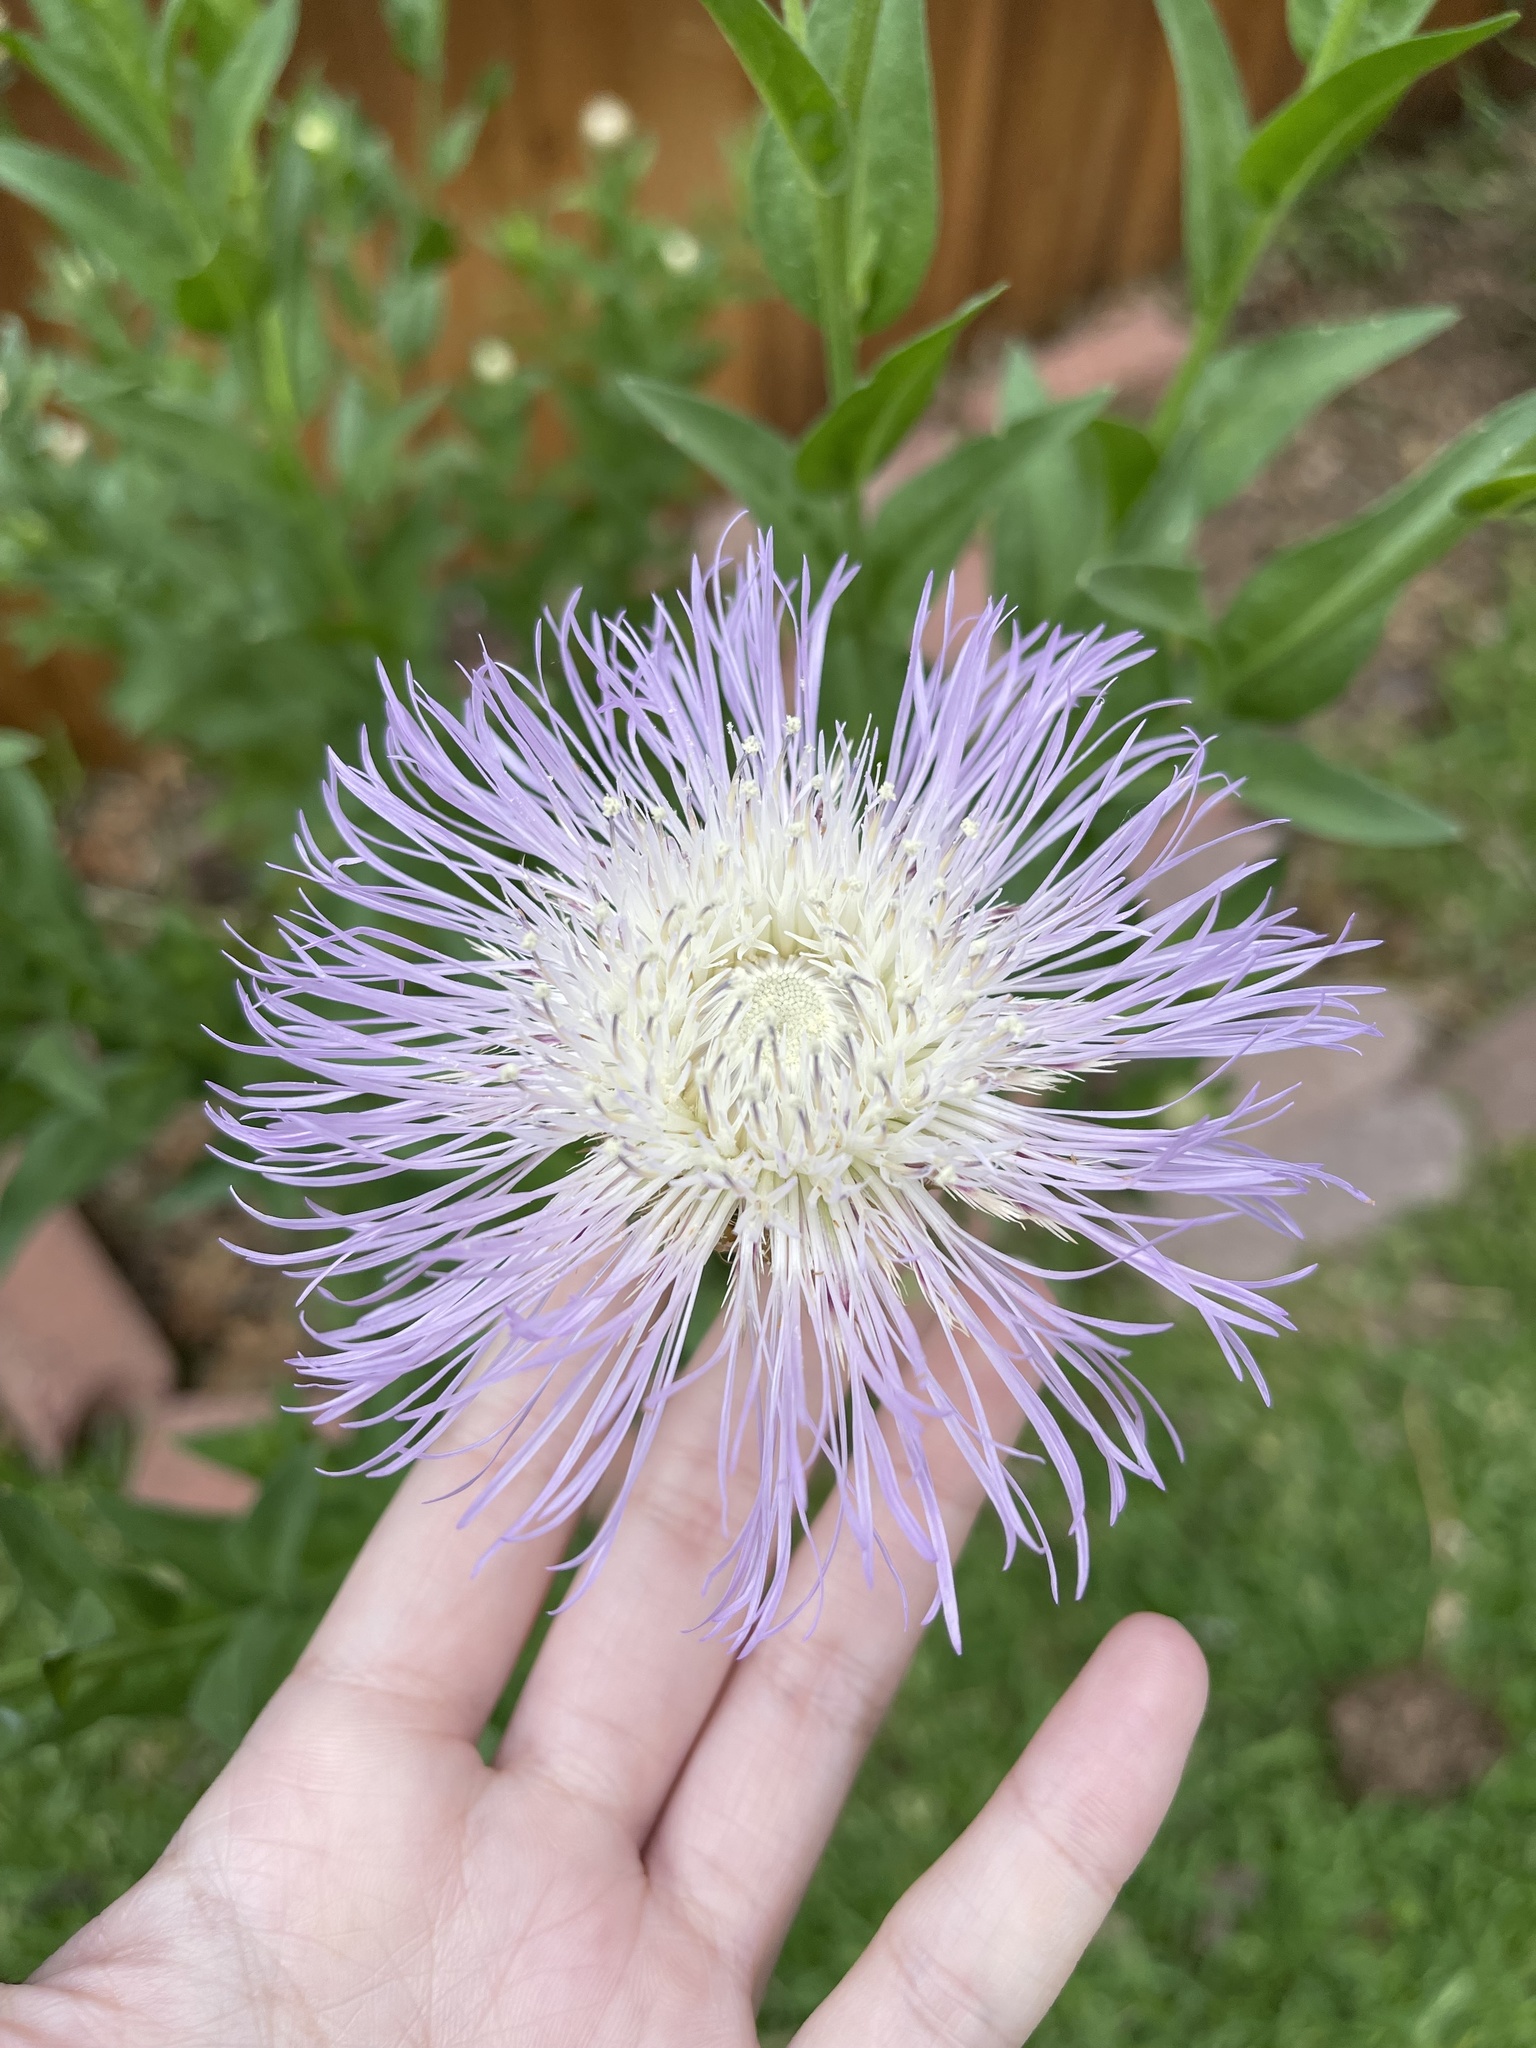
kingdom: Plantae
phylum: Tracheophyta
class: Magnoliopsida
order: Asterales
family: Asteraceae
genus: Plectocephalus
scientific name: Plectocephalus americanus
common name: American basket-flower
